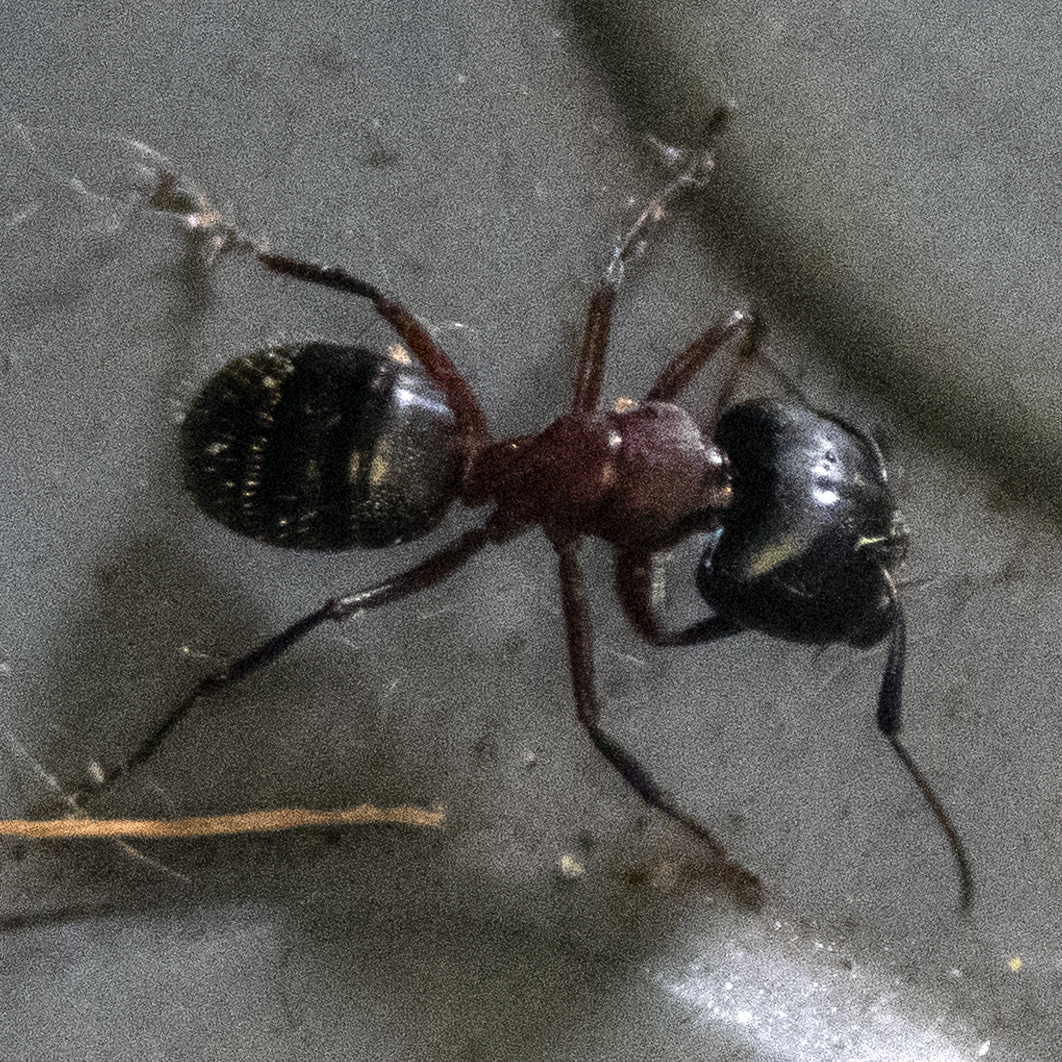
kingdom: Animalia
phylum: Arthropoda
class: Insecta
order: Hymenoptera
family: Formicidae
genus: Camponotus
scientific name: Camponotus novaeboracensis
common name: New york carpenter ant
